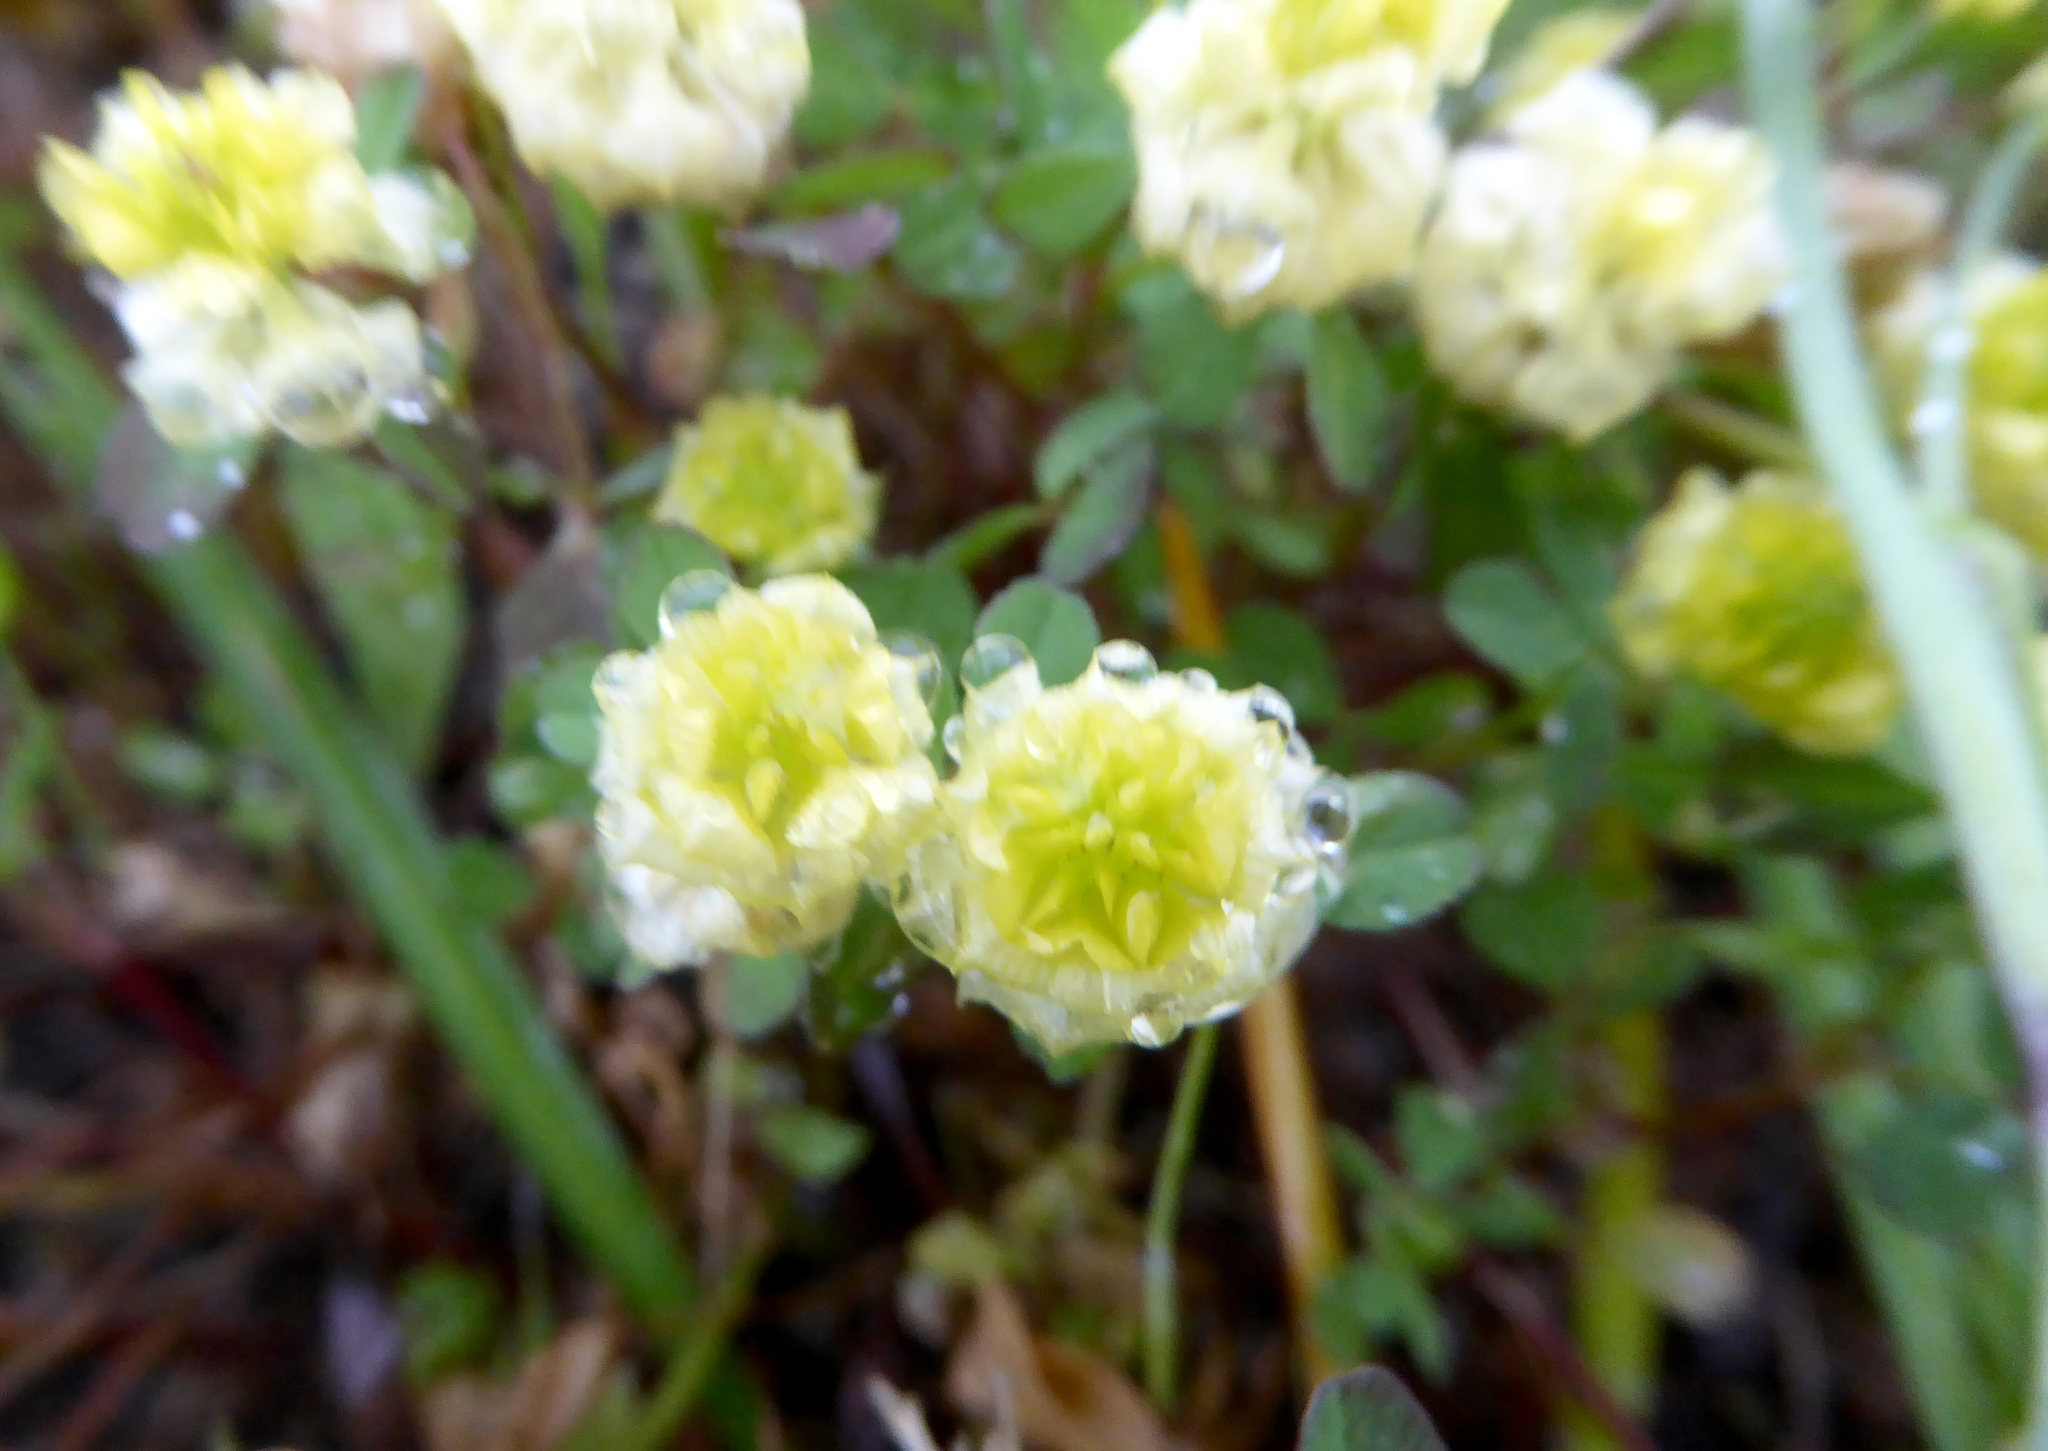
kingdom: Plantae
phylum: Tracheophyta
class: Magnoliopsida
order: Fabales
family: Fabaceae
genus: Trifolium
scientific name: Trifolium campestre
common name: Field clover
